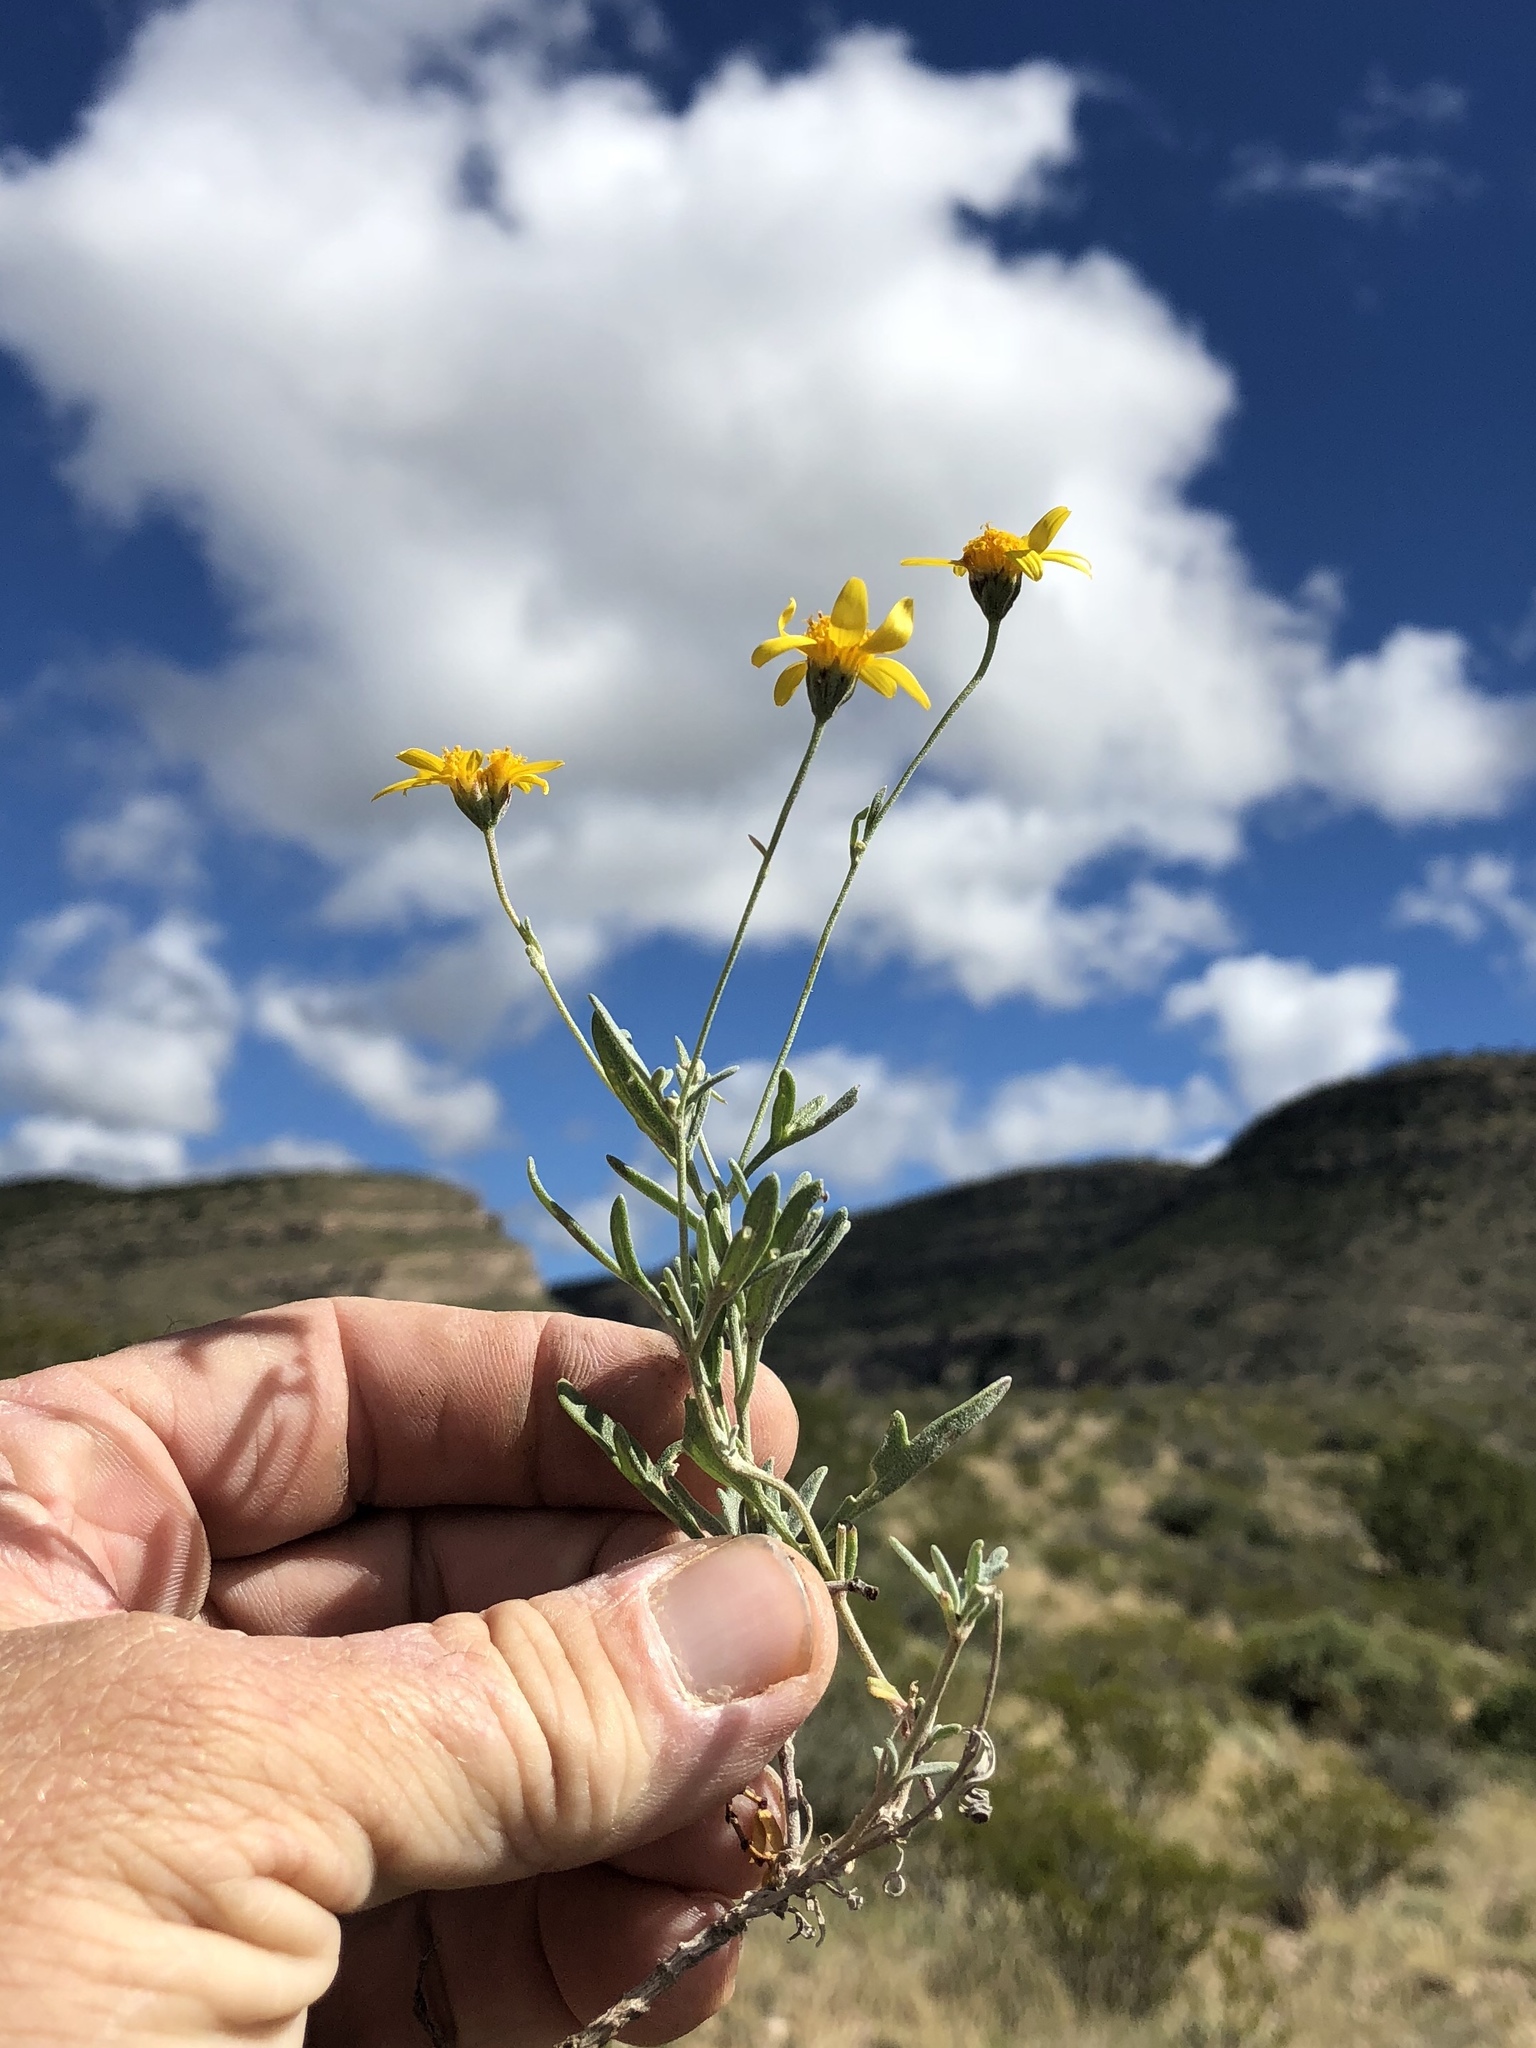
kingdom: Plantae
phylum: Tracheophyta
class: Magnoliopsida
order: Asterales
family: Asteraceae
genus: Picradeniopsis
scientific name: Picradeniopsis absinthifolia
